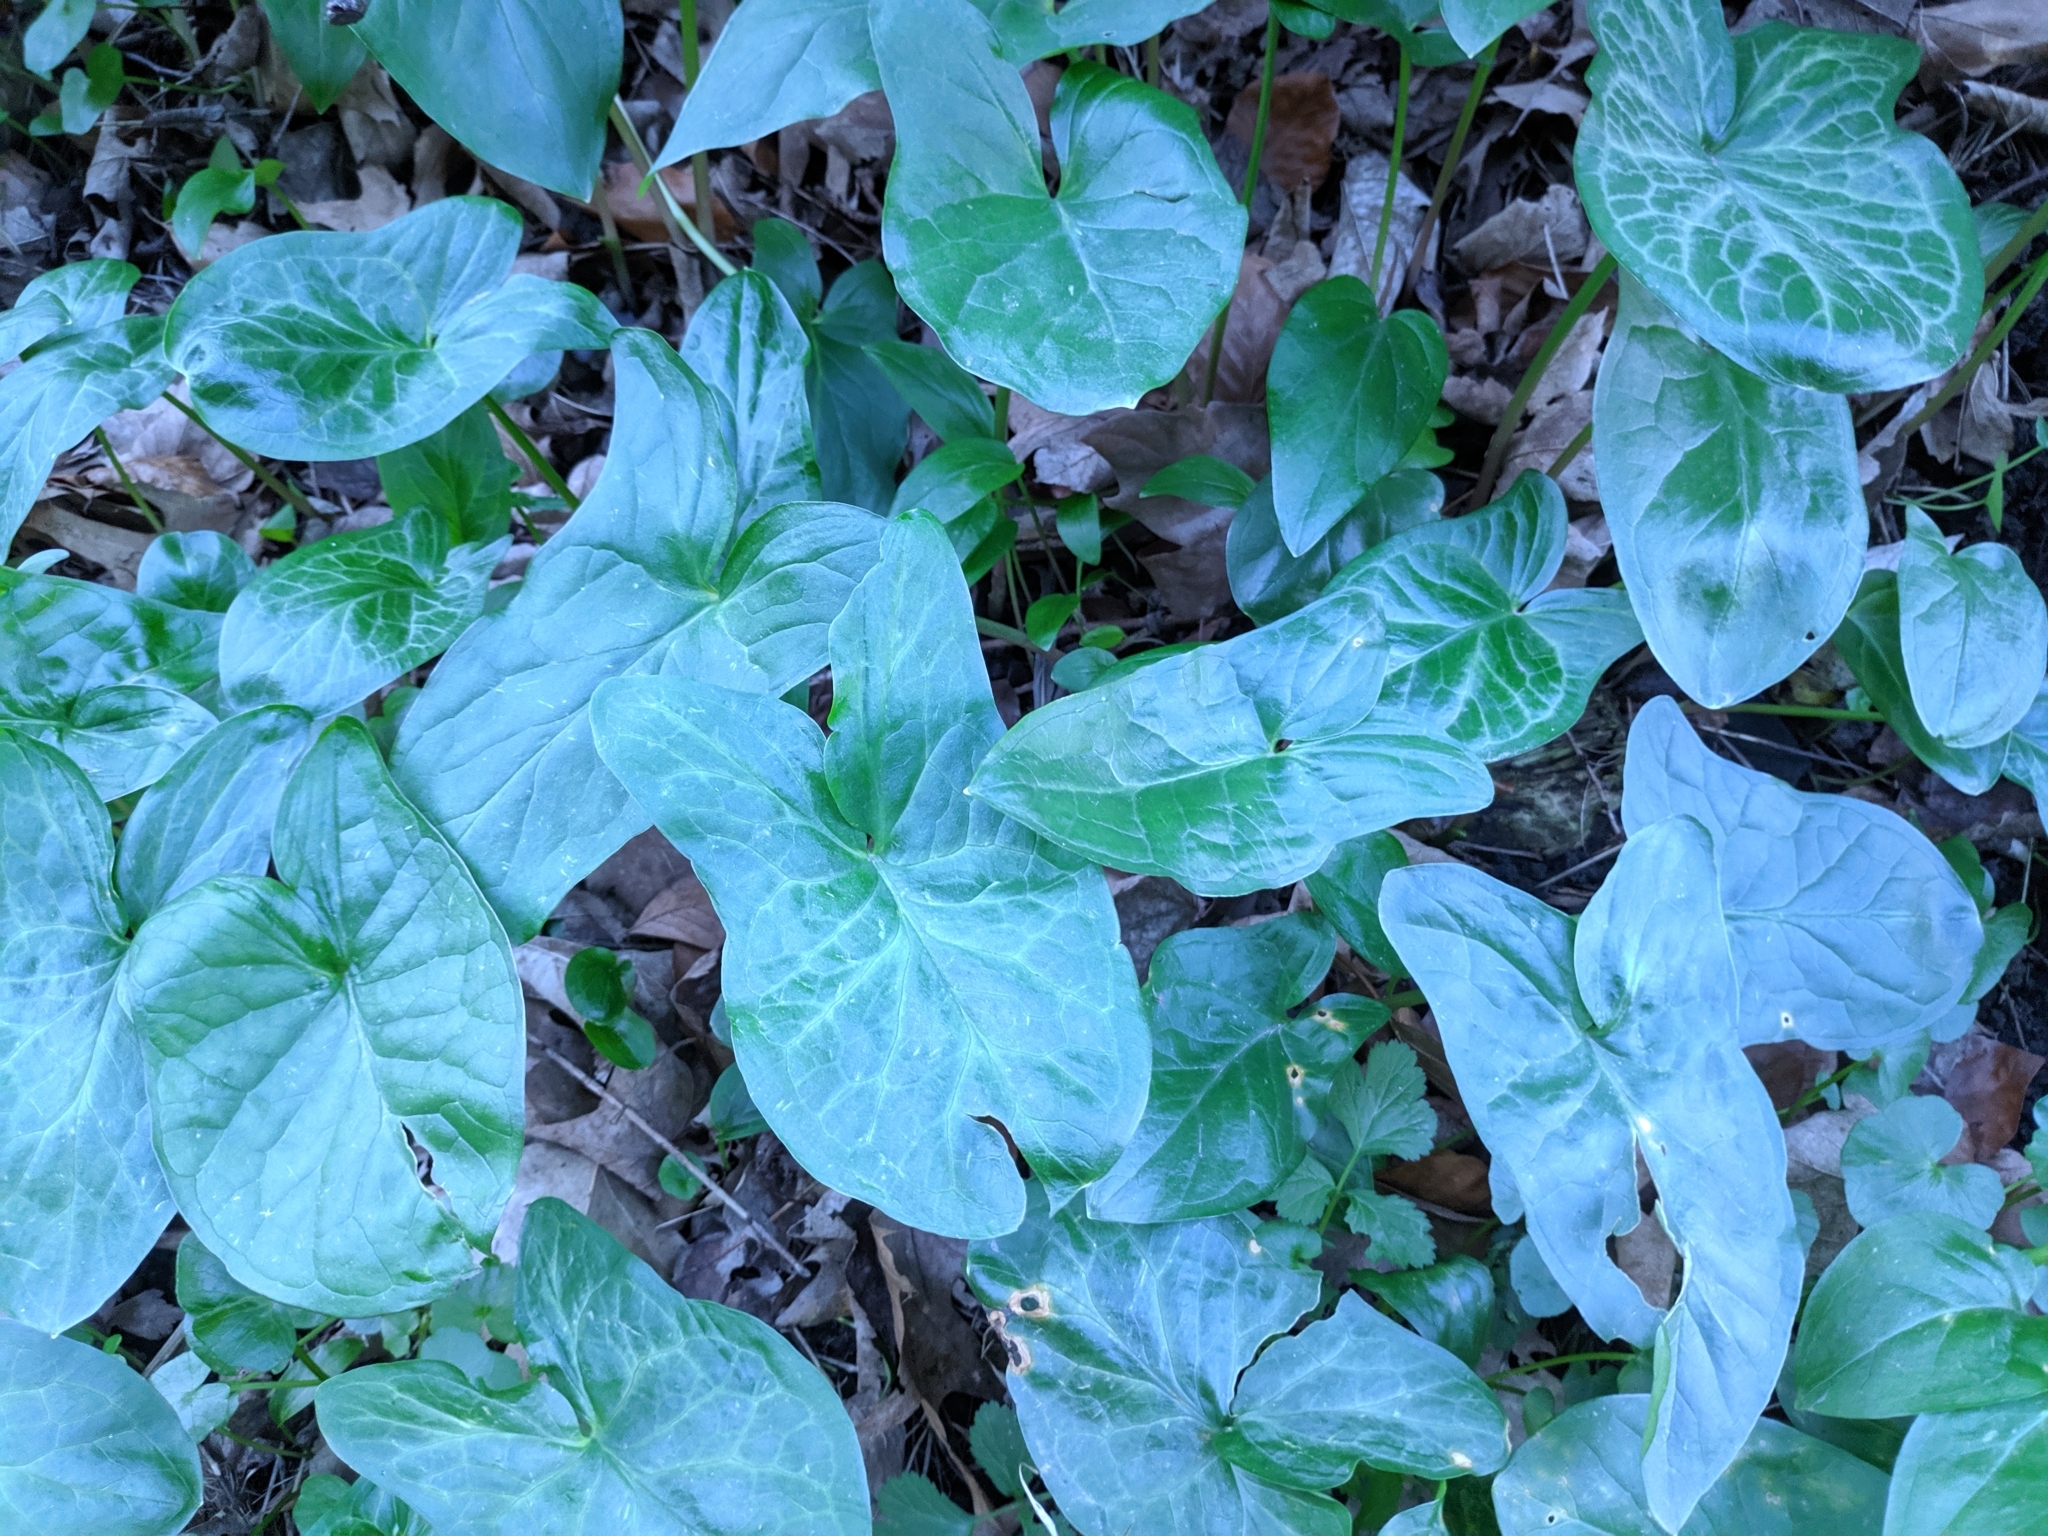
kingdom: Plantae
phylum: Tracheophyta
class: Liliopsida
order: Alismatales
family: Araceae
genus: Arum
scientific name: Arum maculatum
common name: Lords-and-ladies
